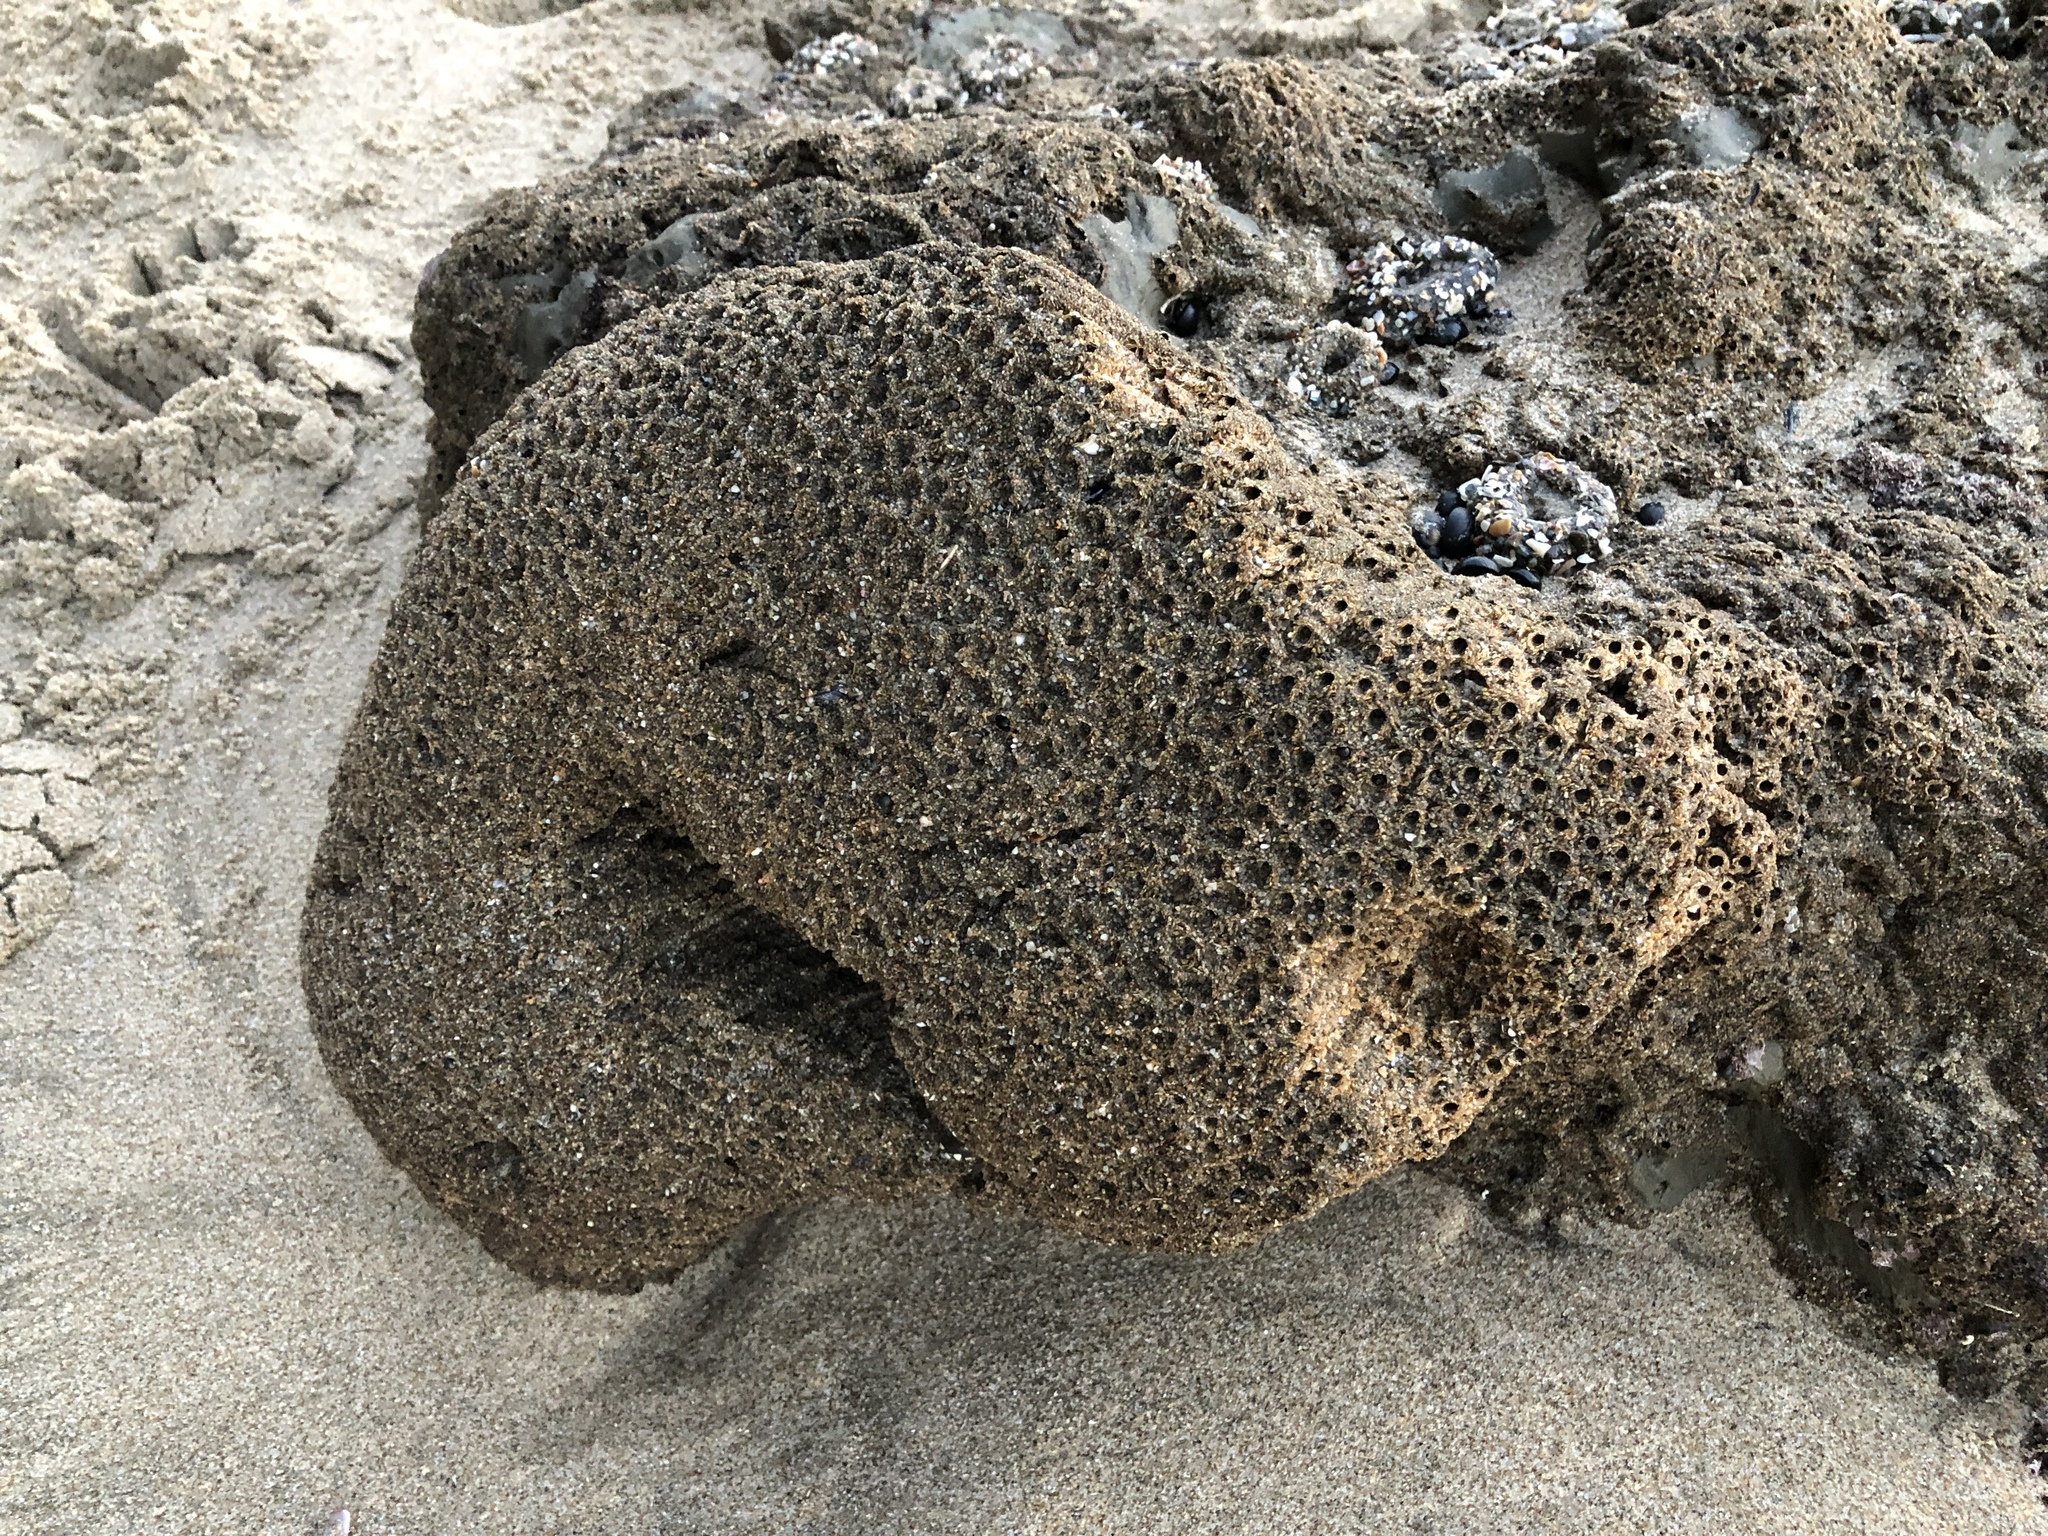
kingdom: Animalia
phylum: Annelida
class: Polychaeta
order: Sabellida
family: Sabellariidae
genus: Phragmatopoma
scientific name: Phragmatopoma californica
